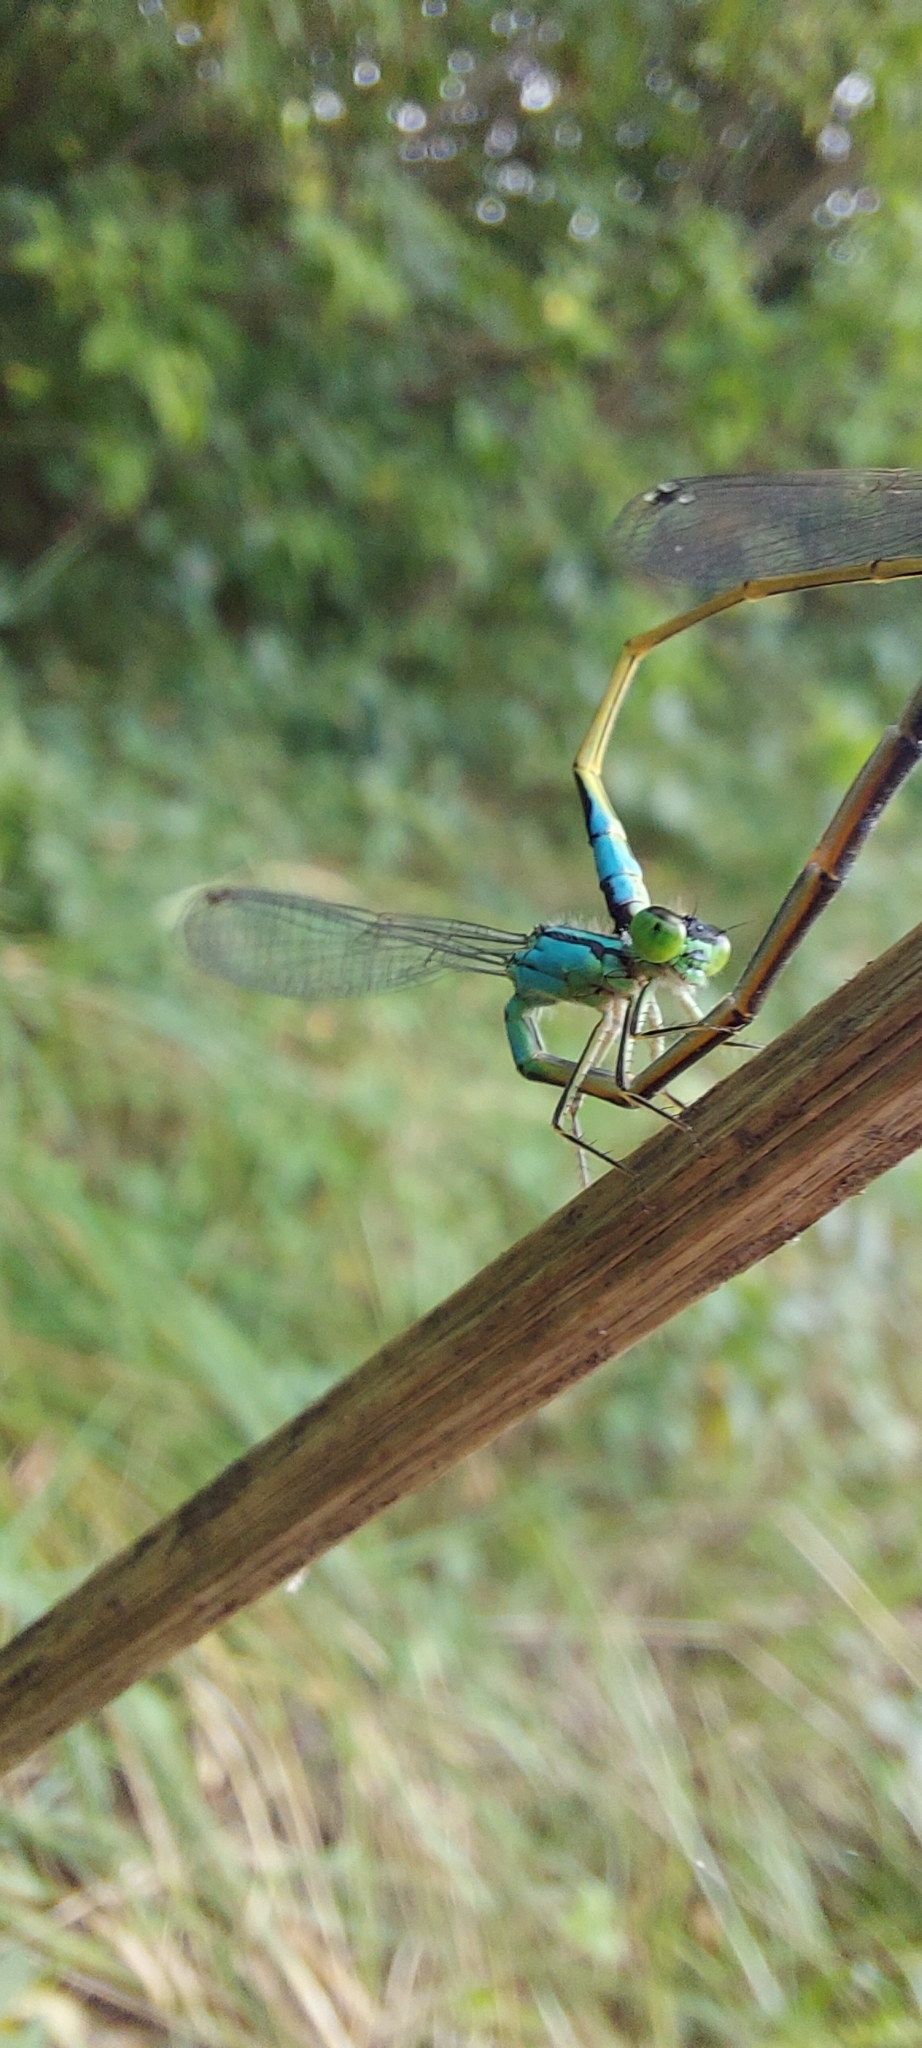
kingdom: Animalia
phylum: Arthropoda
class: Insecta
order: Odonata
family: Coenagrionidae
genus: Ischnura
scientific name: Ischnura elegans
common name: Blue-tailed damselfly
